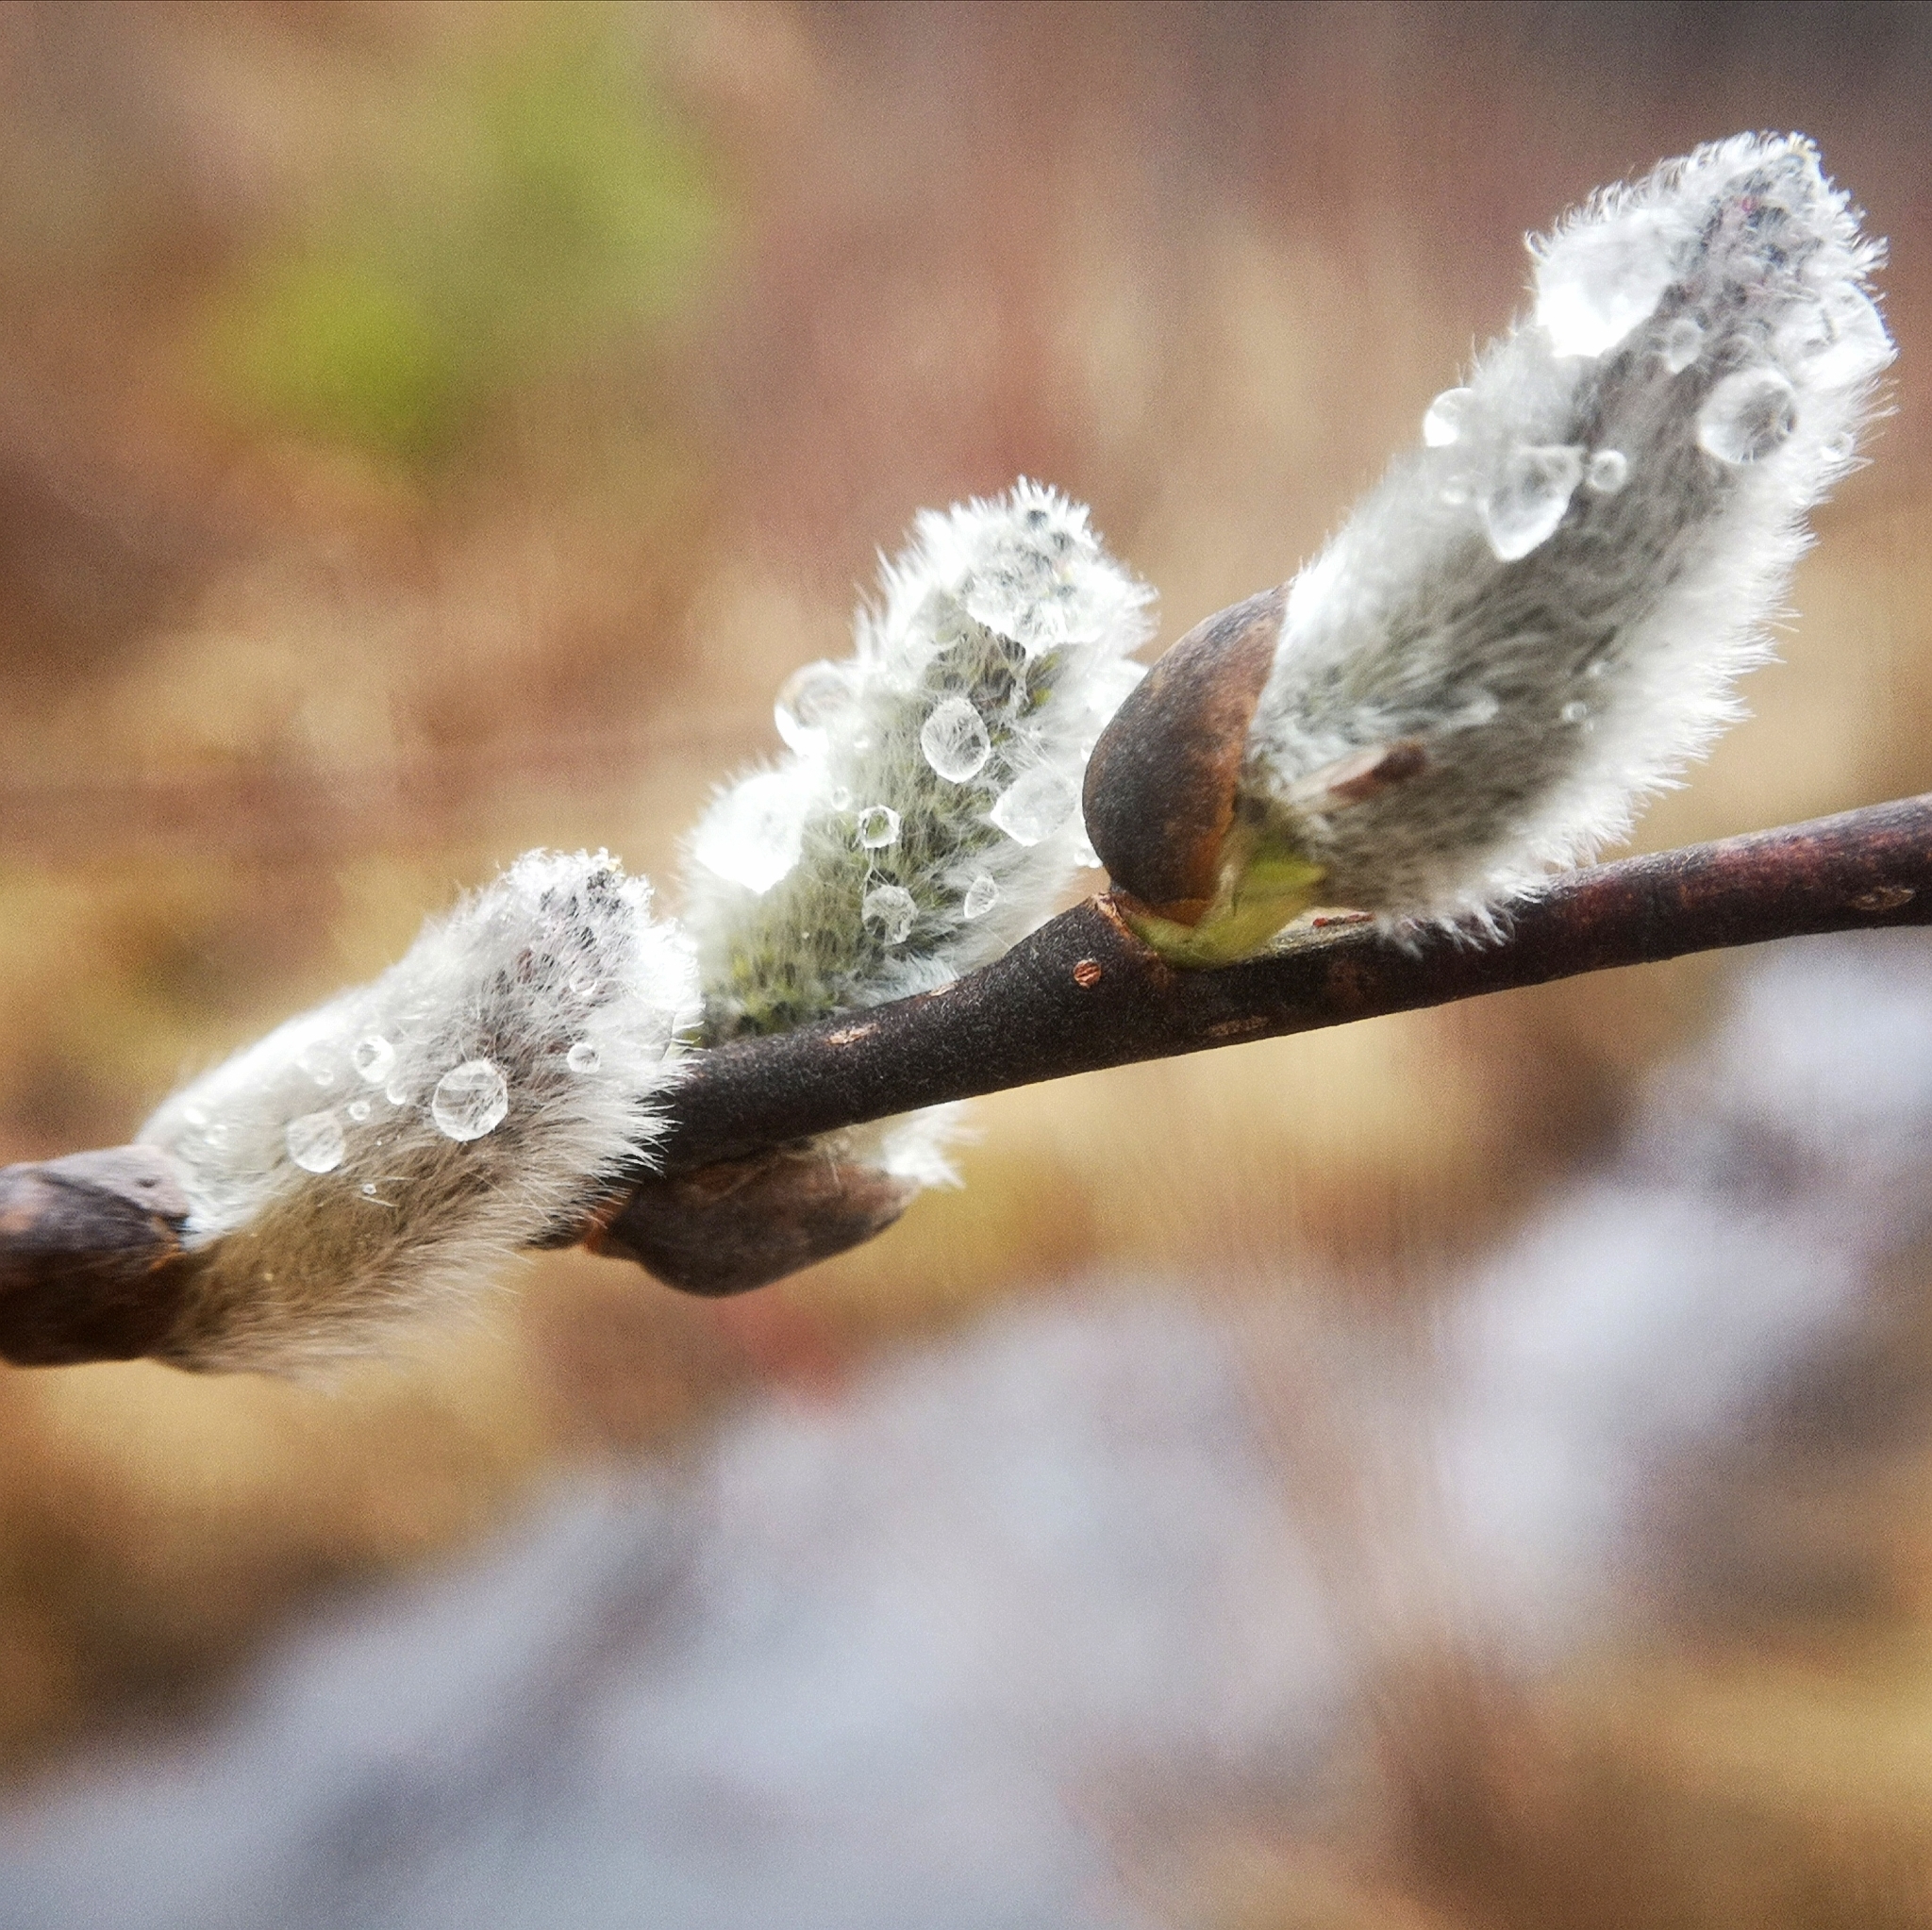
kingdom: Plantae
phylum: Tracheophyta
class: Magnoliopsida
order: Malpighiales
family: Salicaceae
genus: Salix
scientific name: Salix discolor
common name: Glaucous willow
